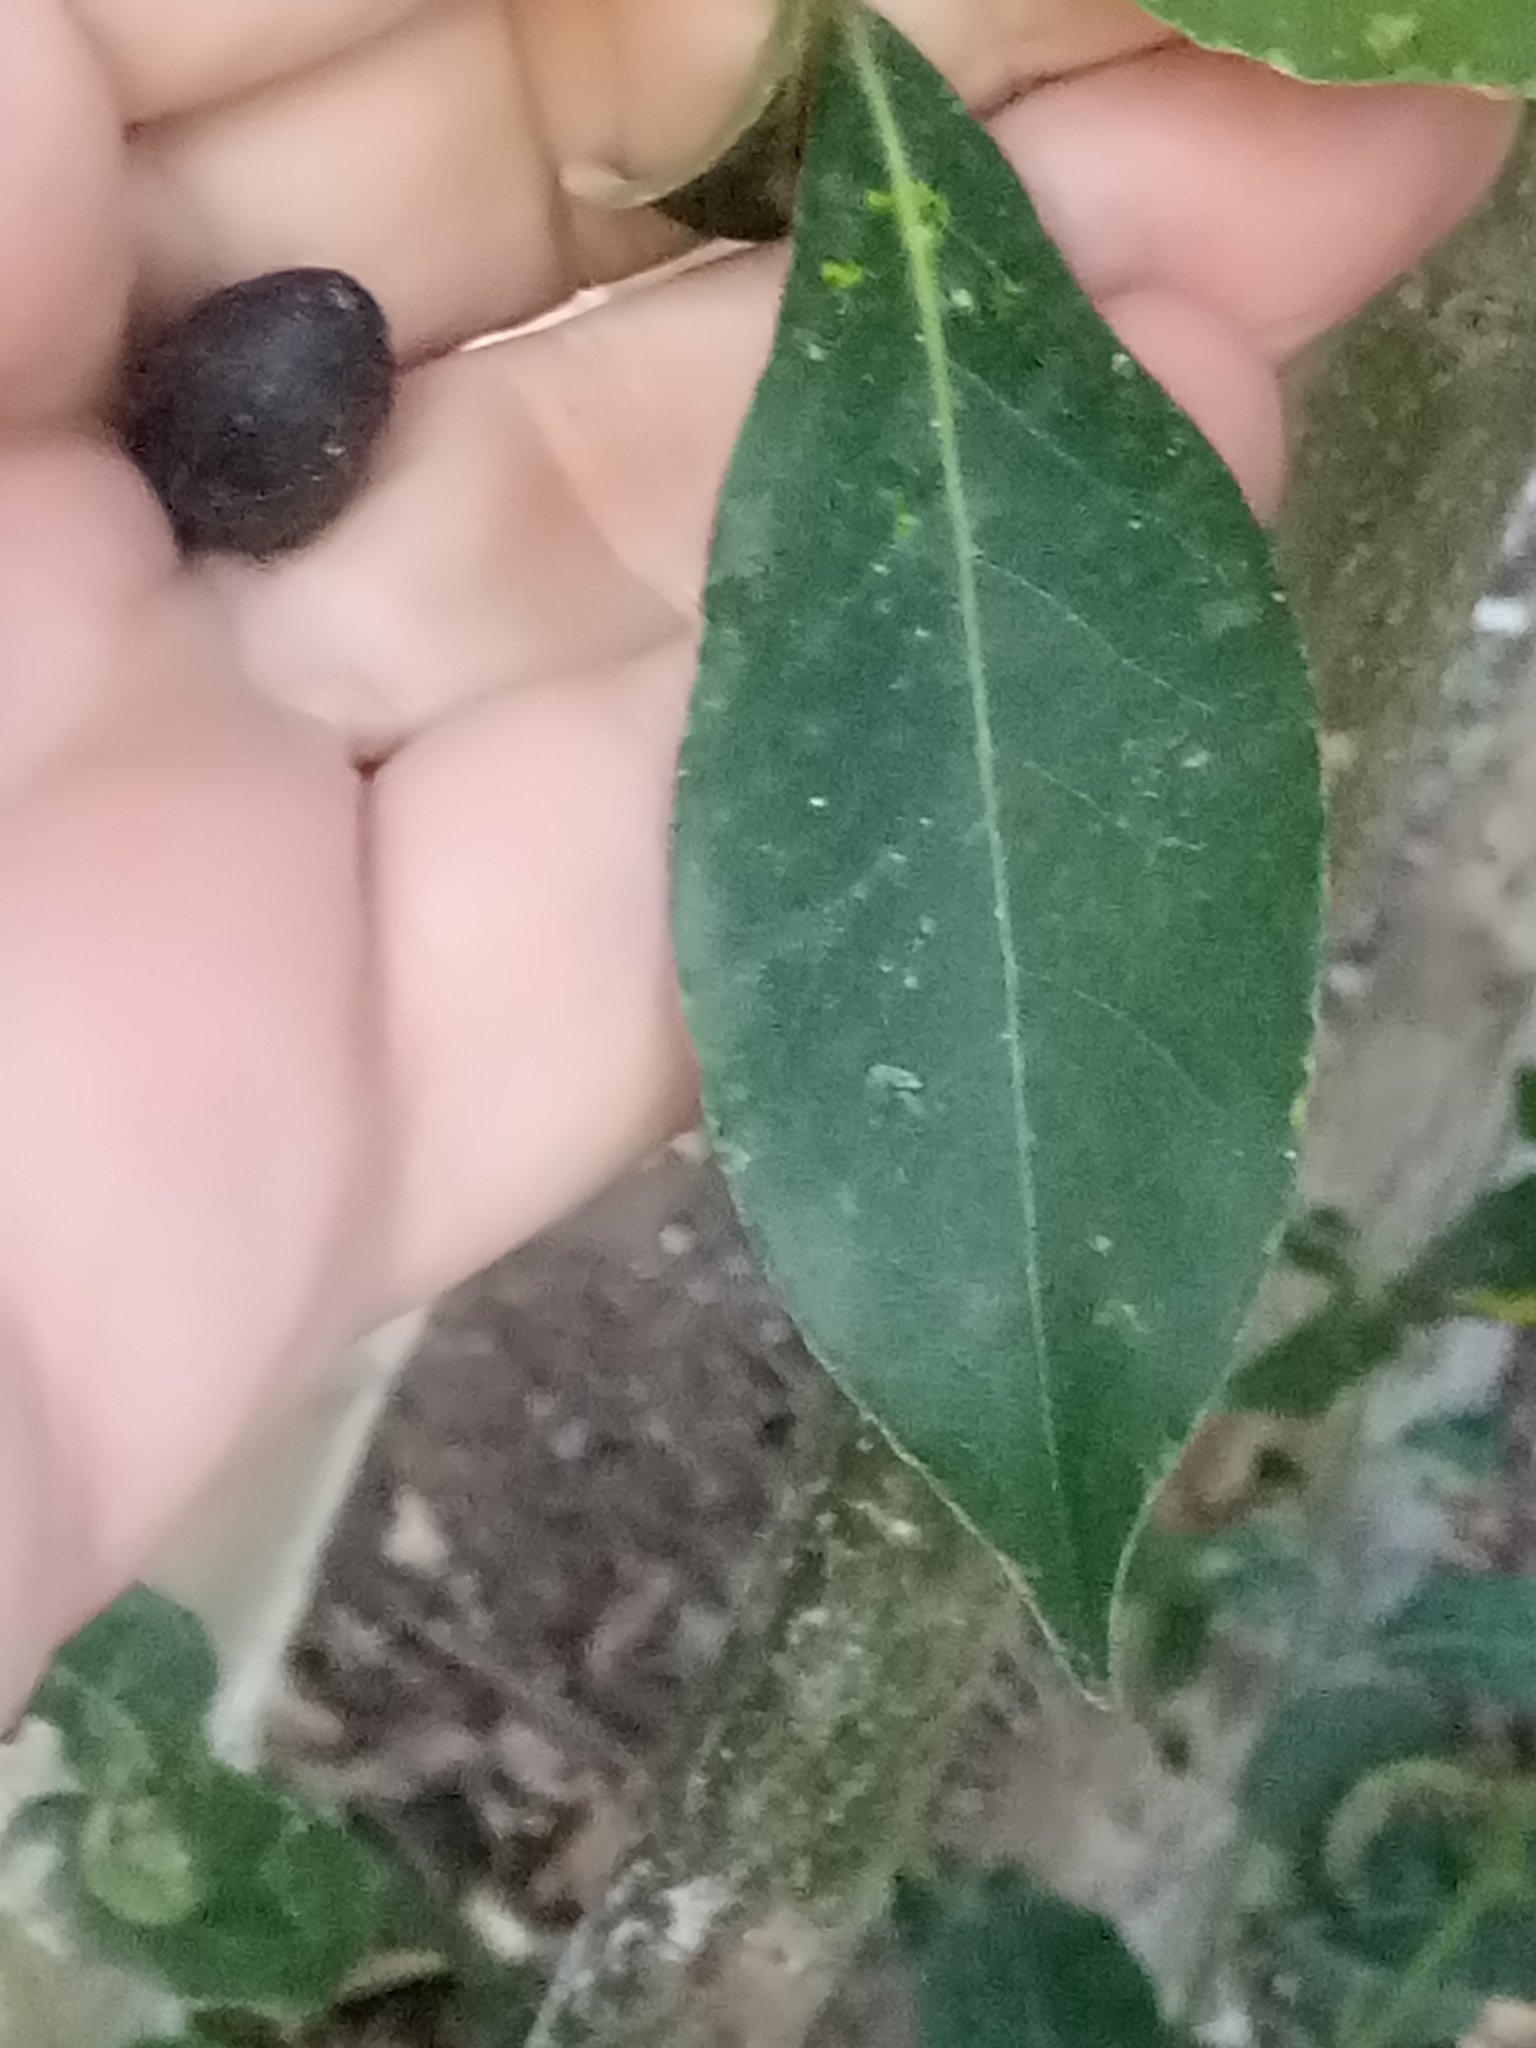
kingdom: Plantae
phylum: Tracheophyta
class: Magnoliopsida
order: Laurales
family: Lauraceae
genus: Laurus
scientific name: Laurus nobilis
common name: Bay
